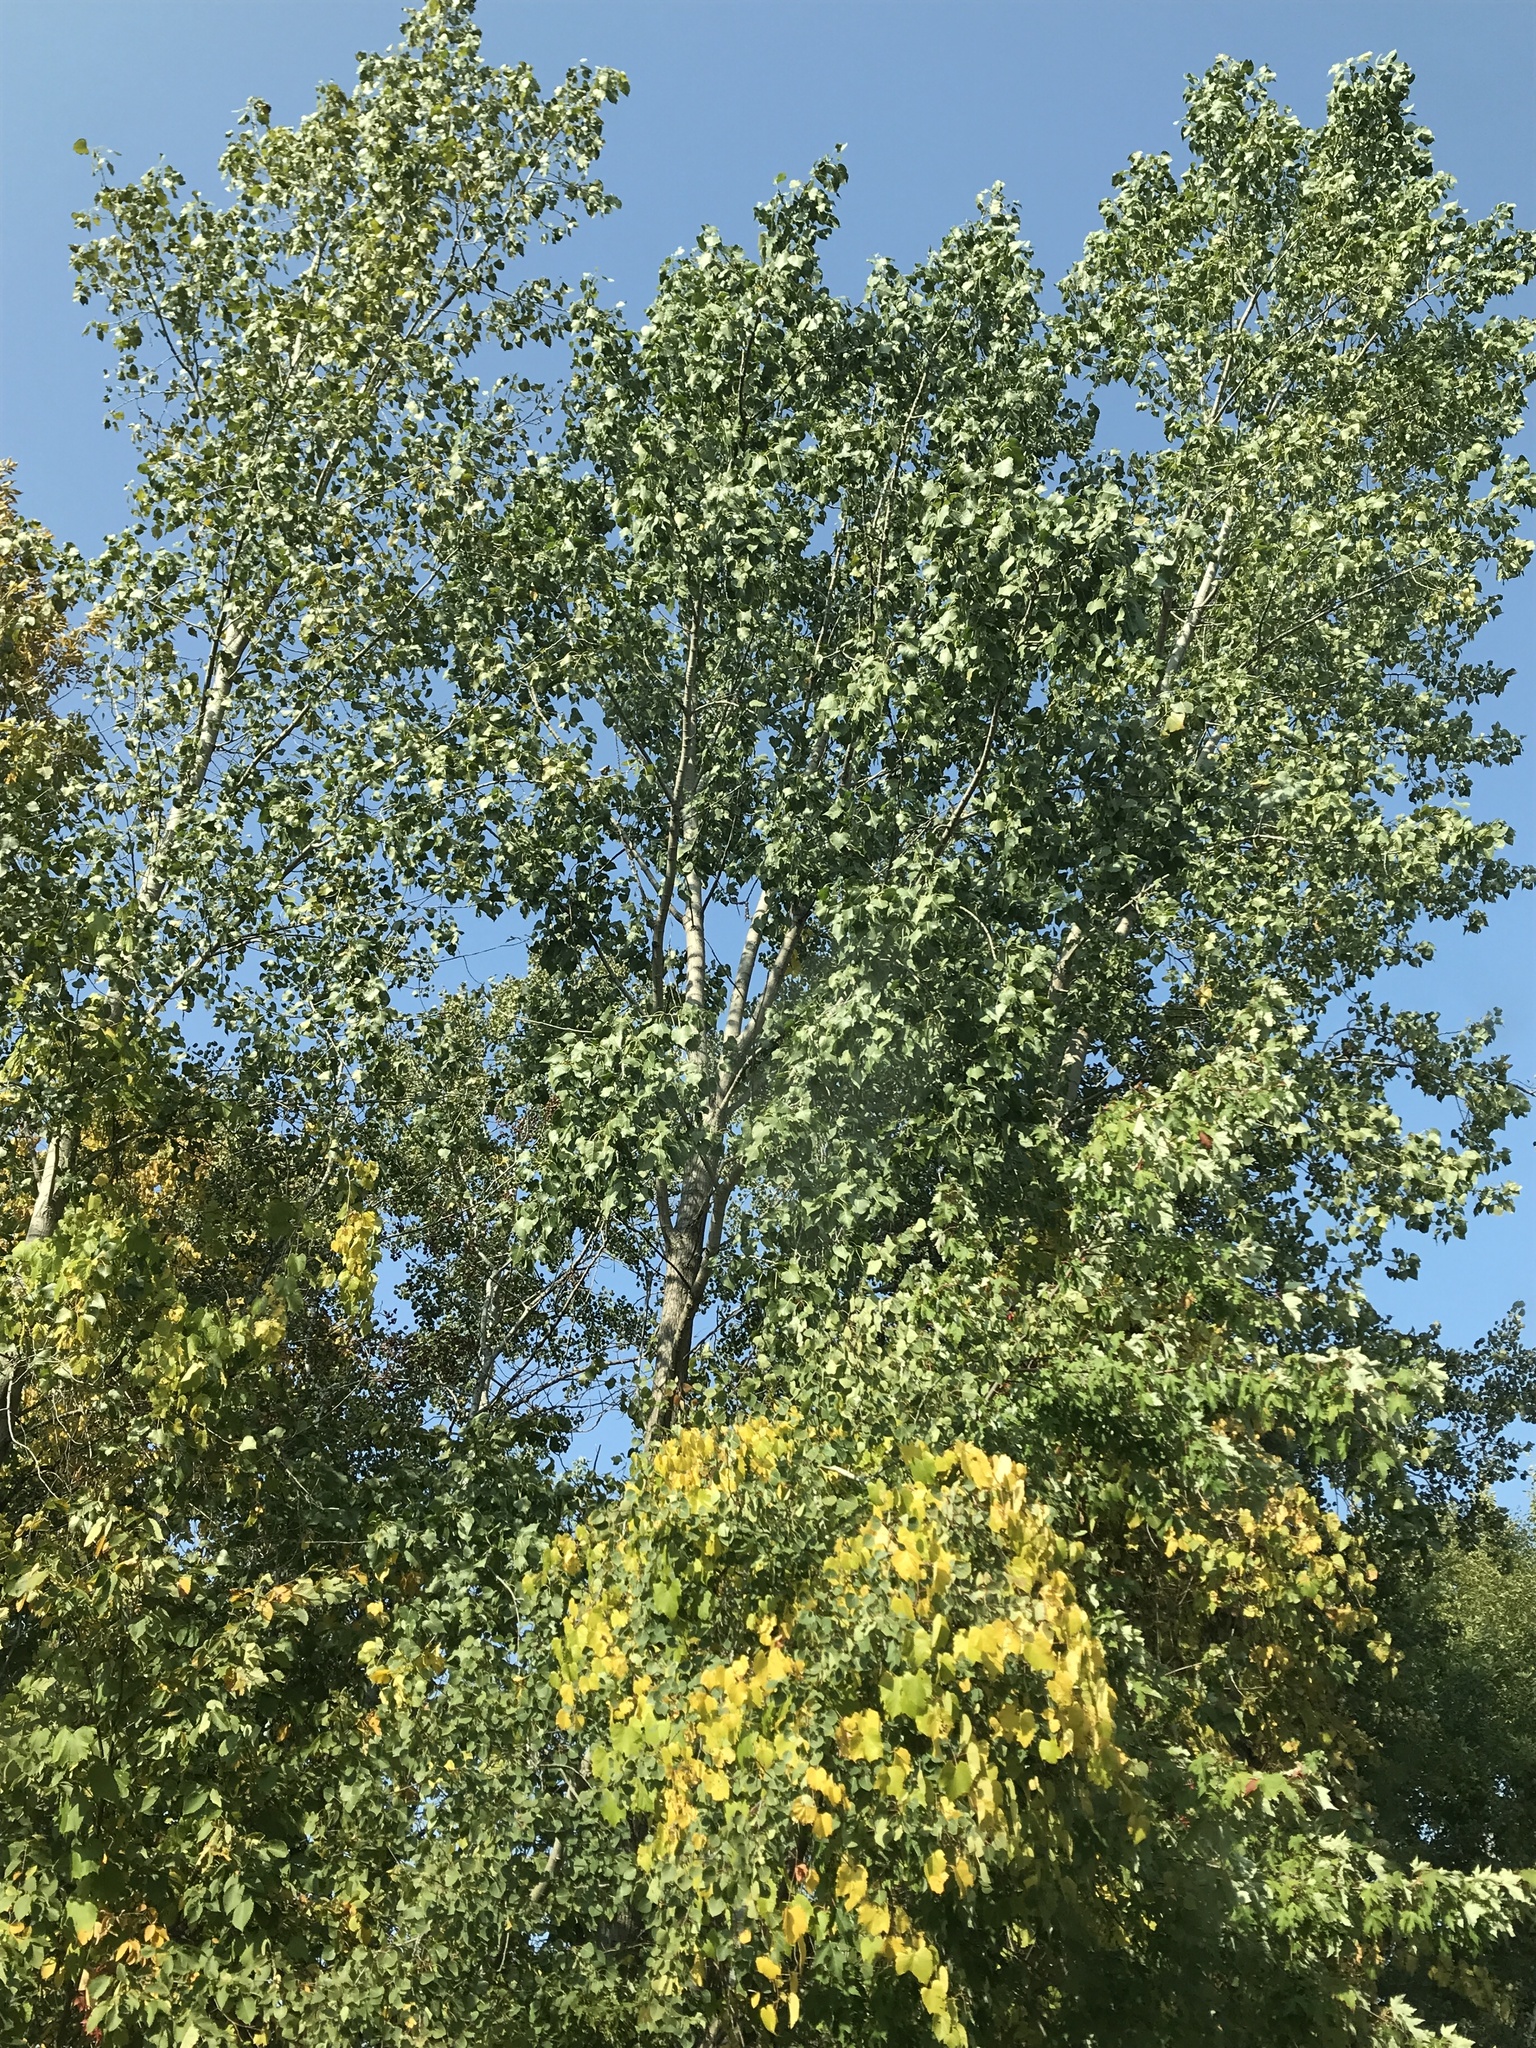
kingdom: Plantae
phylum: Tracheophyta
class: Magnoliopsida
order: Malpighiales
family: Salicaceae
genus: Populus
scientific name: Populus deltoides
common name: Eastern cottonwood
